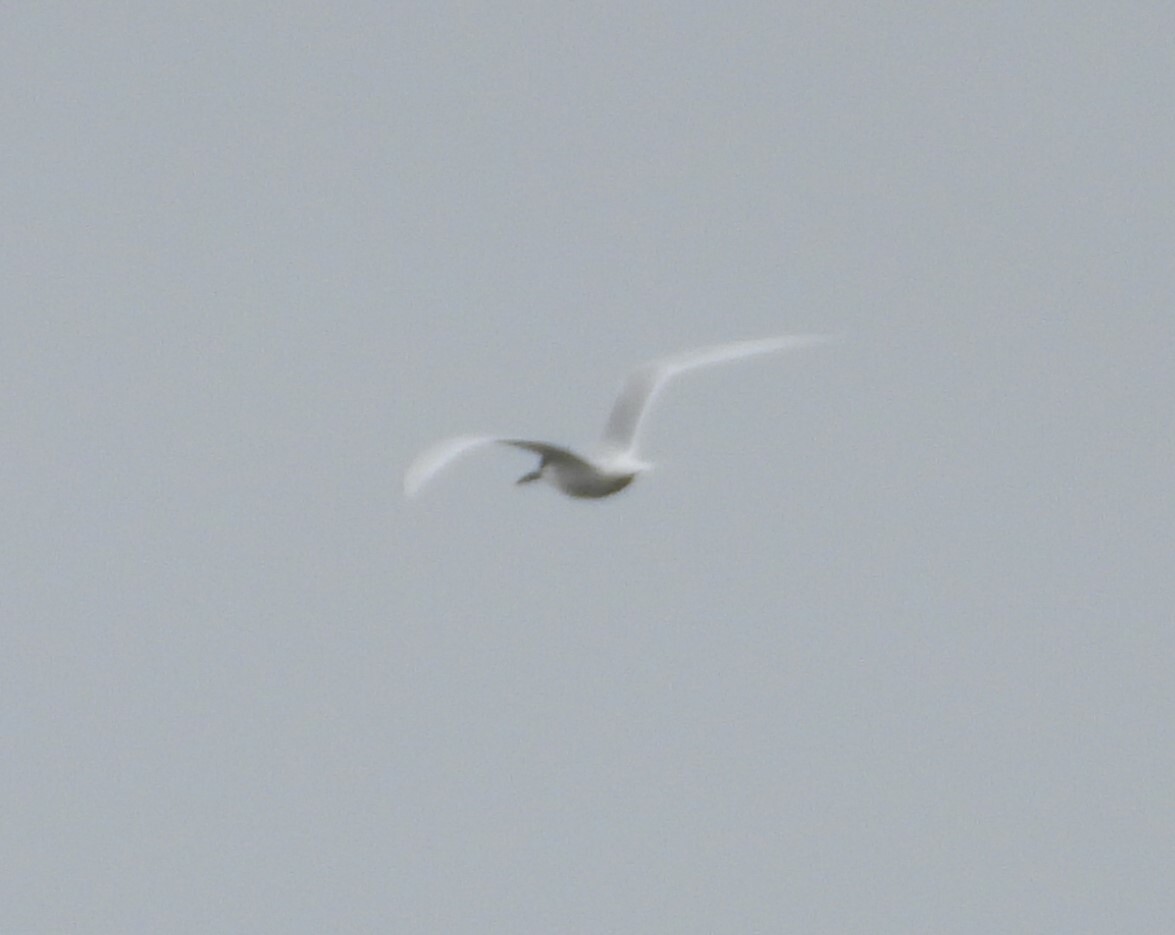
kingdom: Animalia
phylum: Chordata
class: Aves
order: Charadriiformes
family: Laridae
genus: Thalasseus
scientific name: Thalasseus sandvicensis
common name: Sandwich tern
